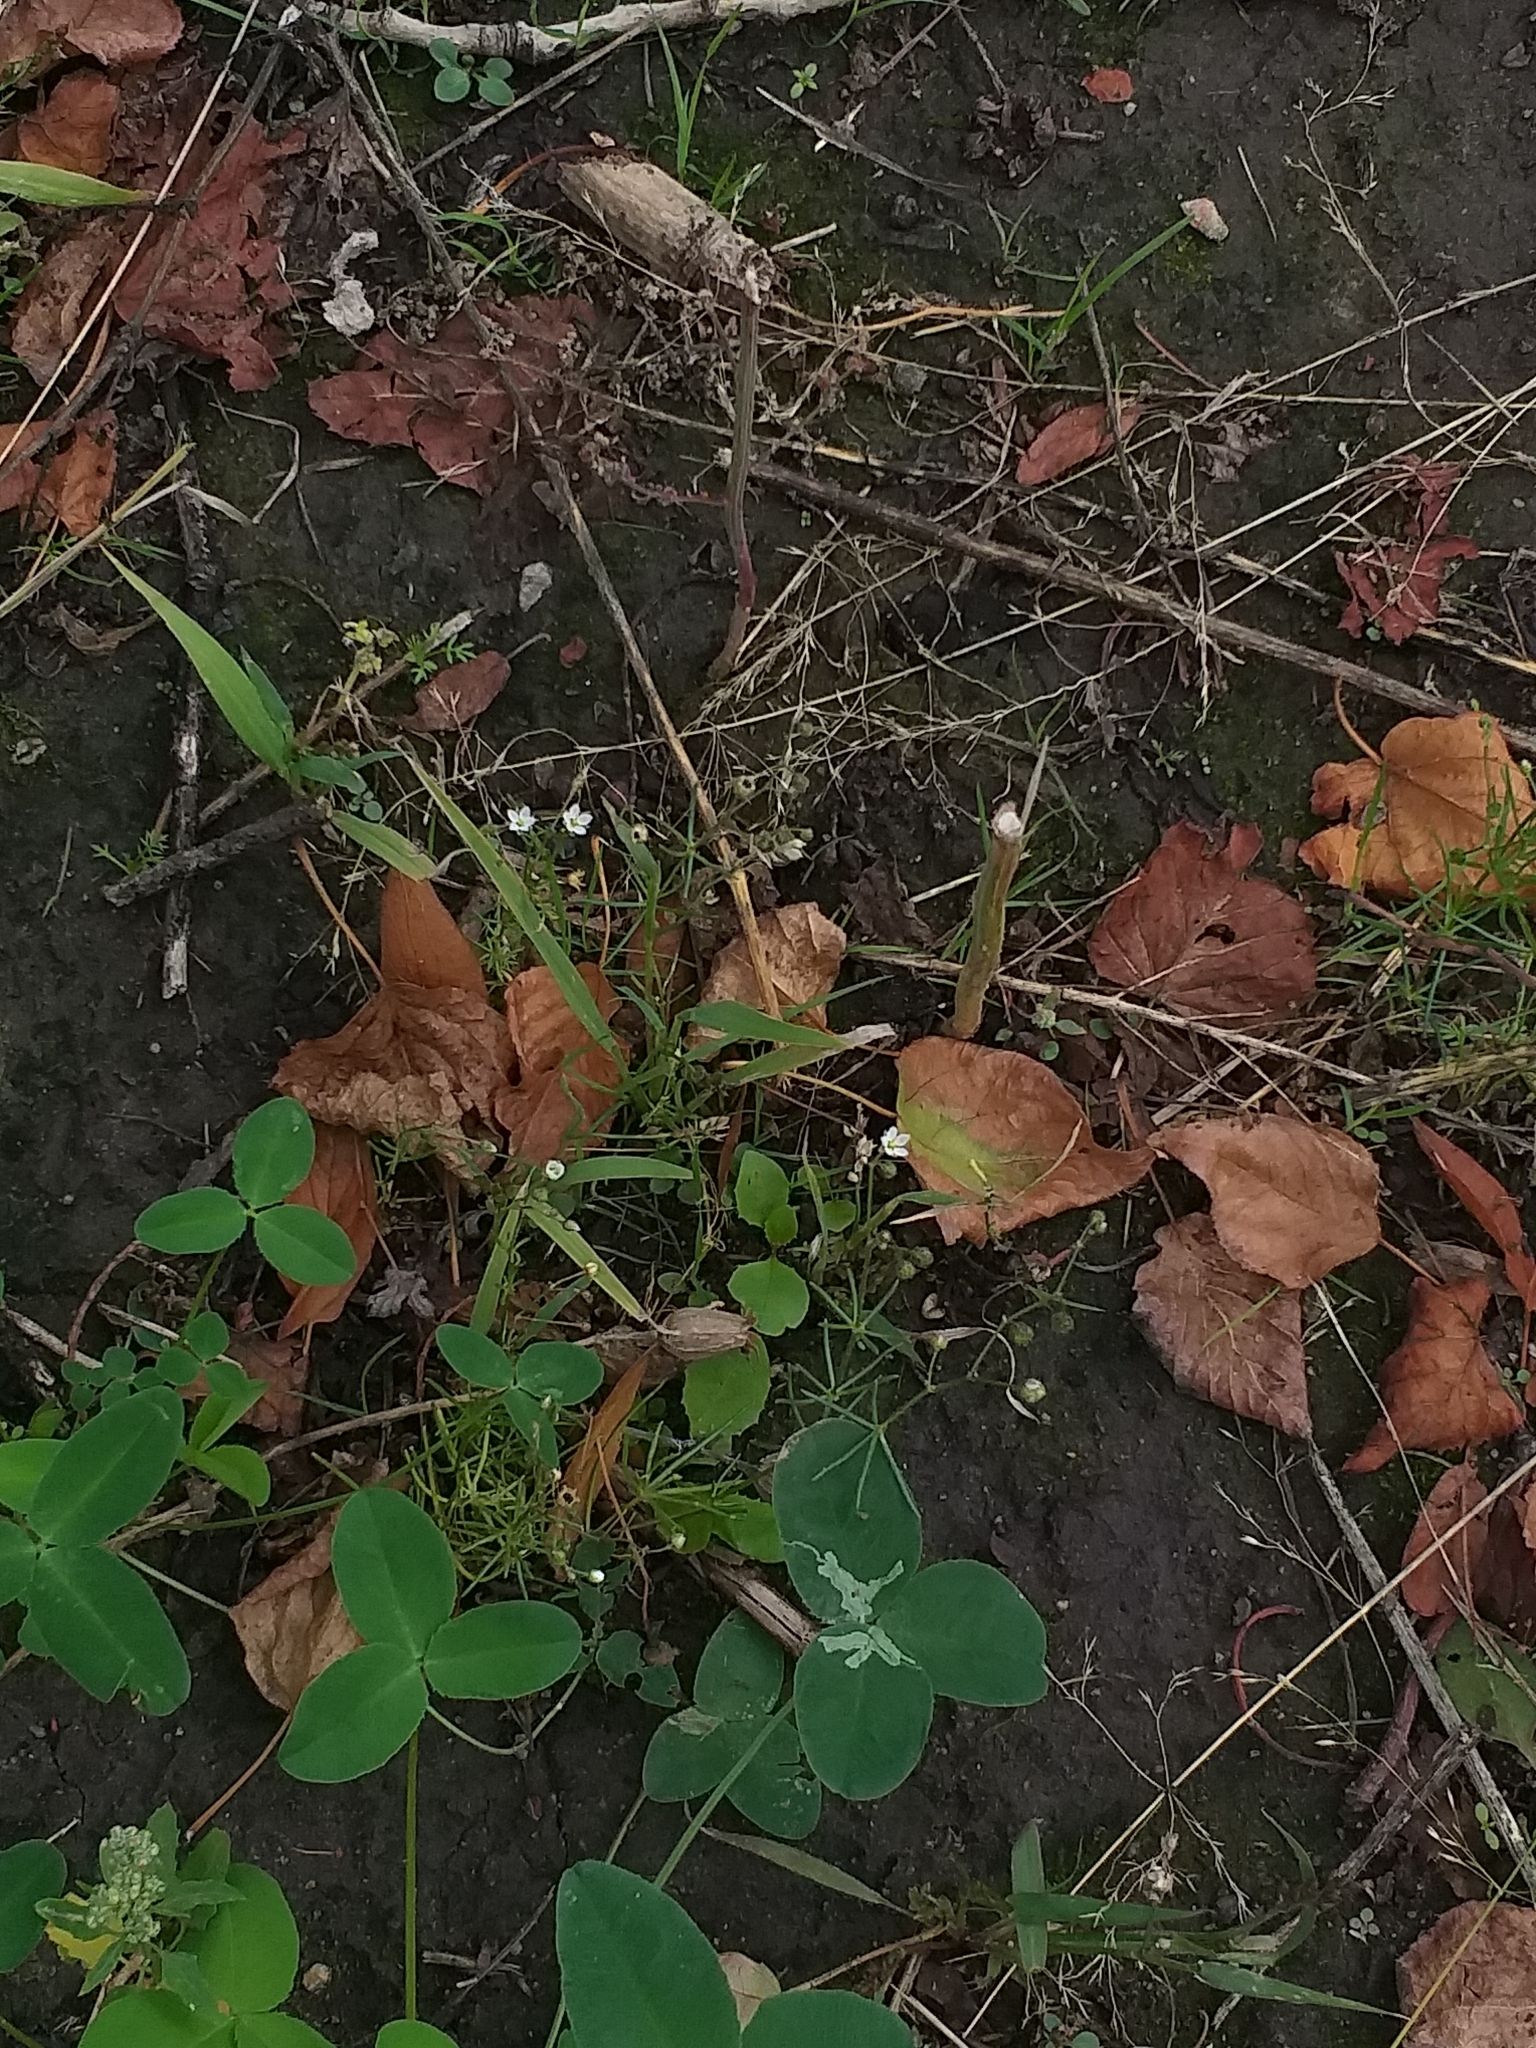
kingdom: Plantae
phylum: Tracheophyta
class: Magnoliopsida
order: Caryophyllales
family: Caryophyllaceae
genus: Spergula
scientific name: Spergula arvensis
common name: Corn spurrey
